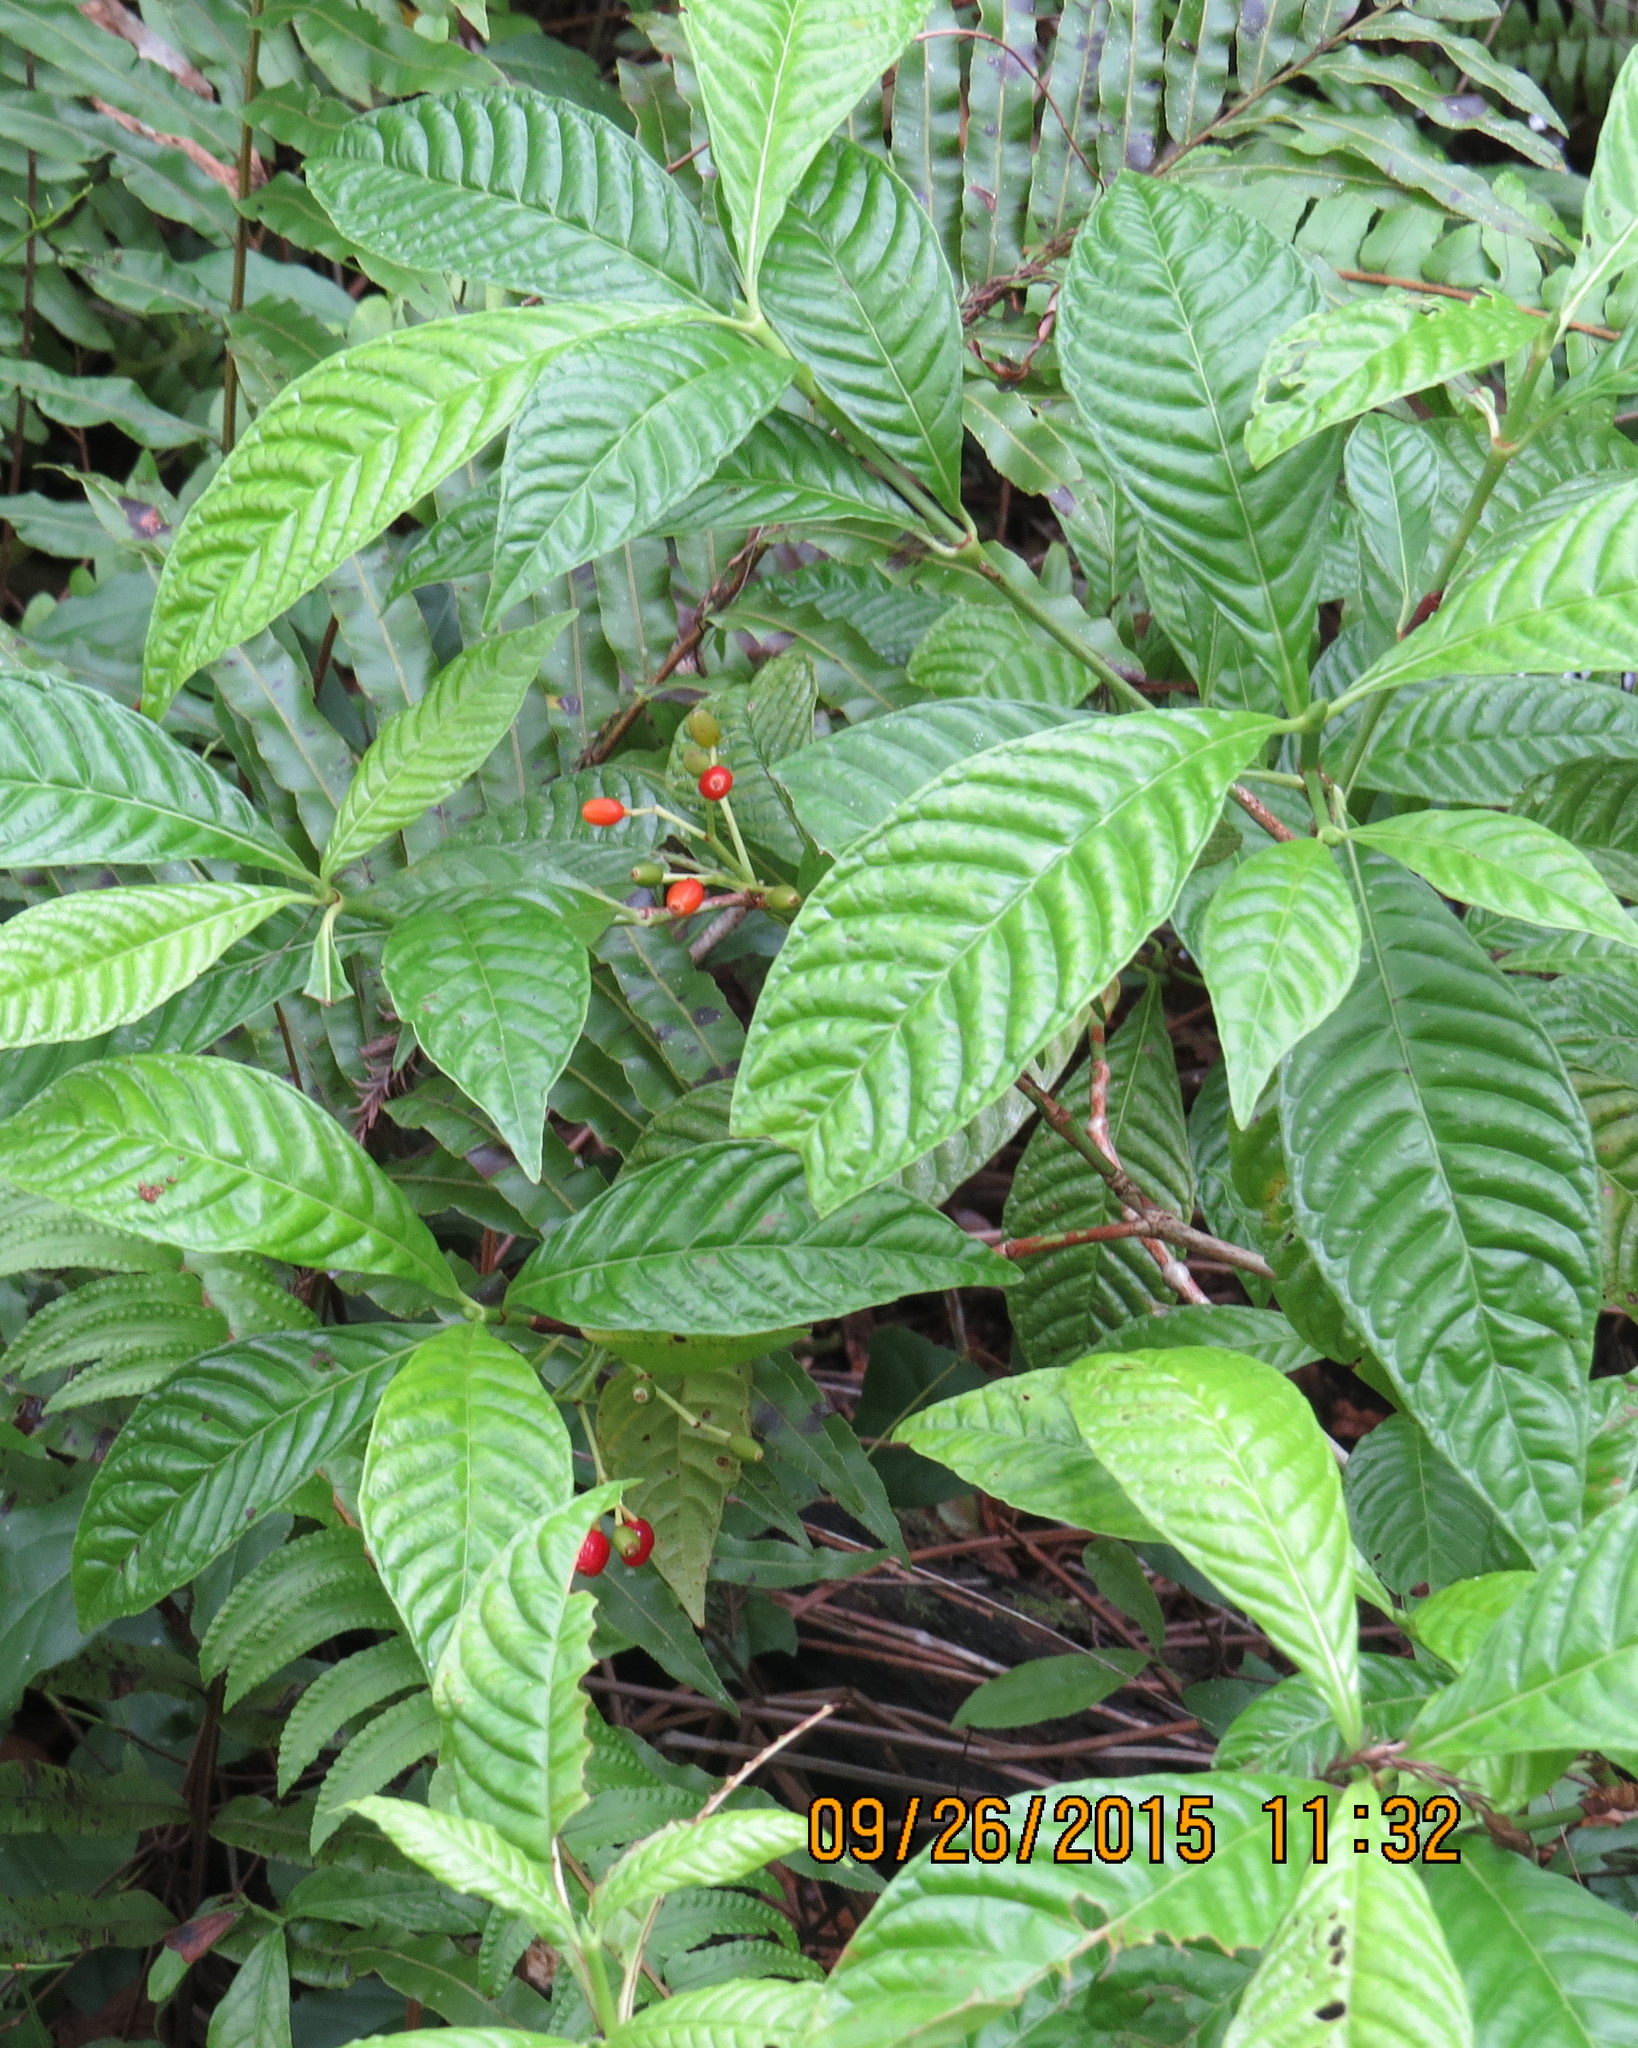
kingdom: Plantae
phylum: Tracheophyta
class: Magnoliopsida
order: Gentianales
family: Rubiaceae
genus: Psychotria
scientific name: Psychotria nervosa
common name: Bastard cankerberry
